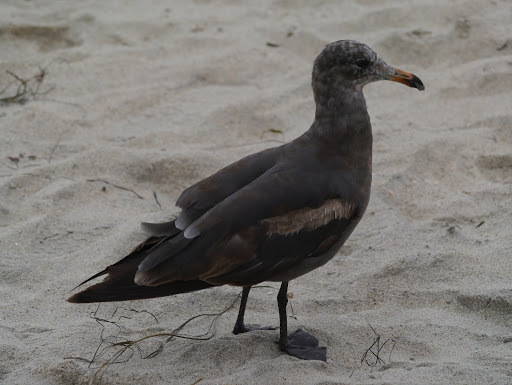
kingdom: Animalia
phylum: Chordata
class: Aves
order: Charadriiformes
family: Laridae
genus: Larus
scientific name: Larus heermanni
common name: Heermann's gull
